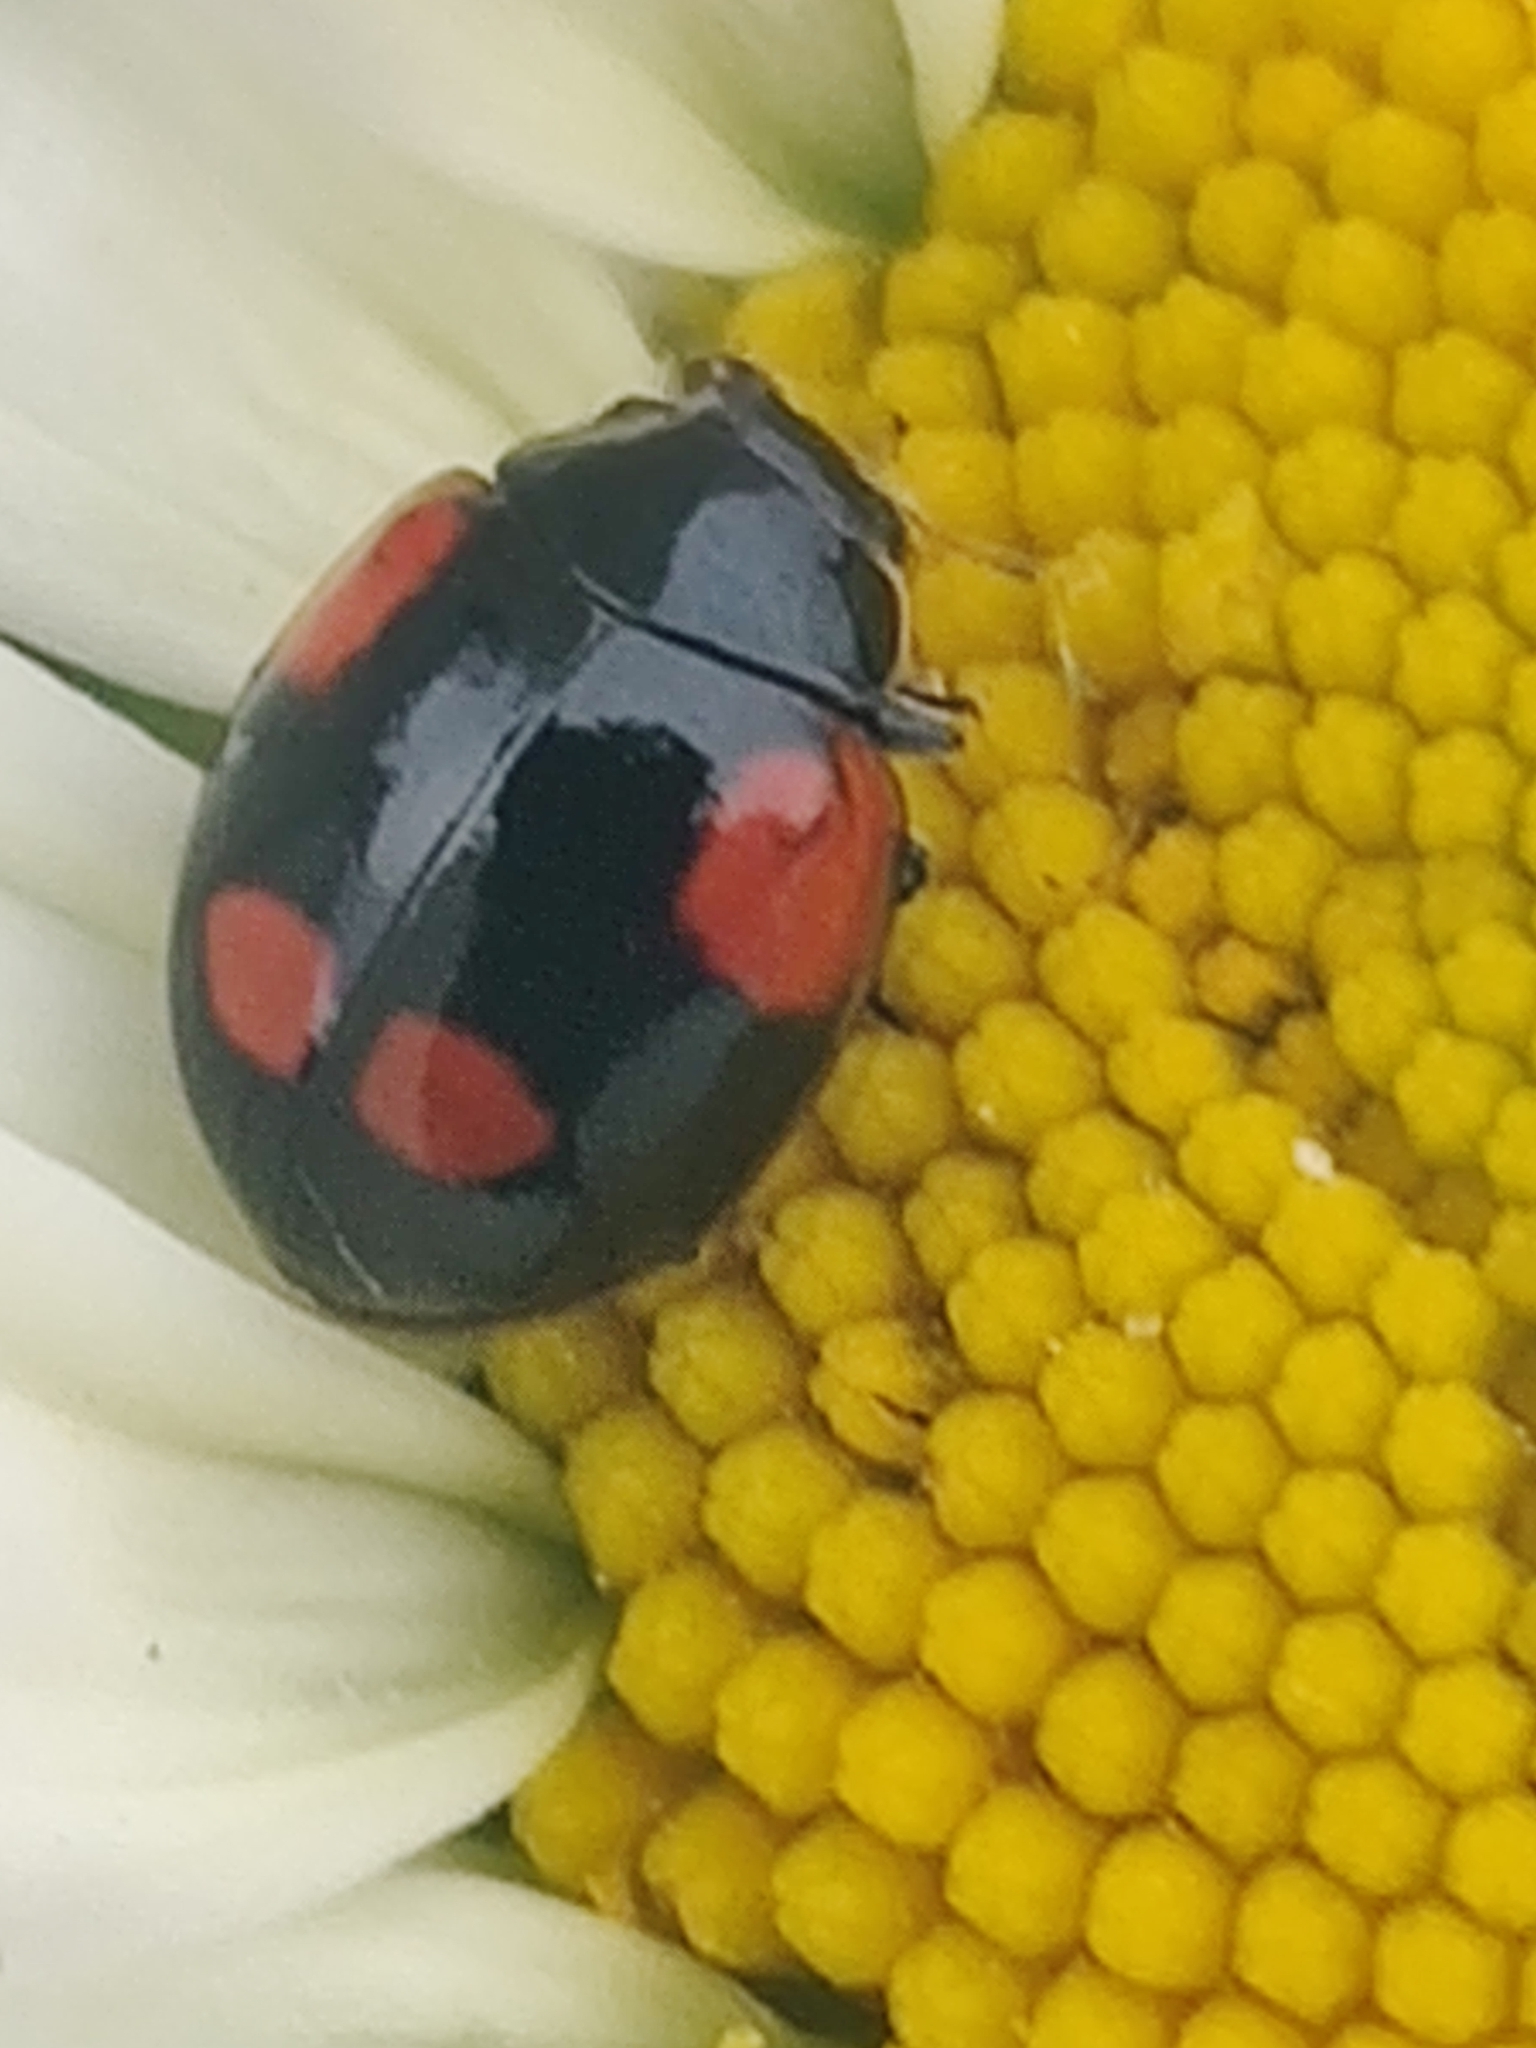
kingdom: Animalia
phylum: Arthropoda
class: Insecta
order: Coleoptera
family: Coccinellidae
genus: Adalia
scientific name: Adalia bipunctata
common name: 2-spot ladybird
